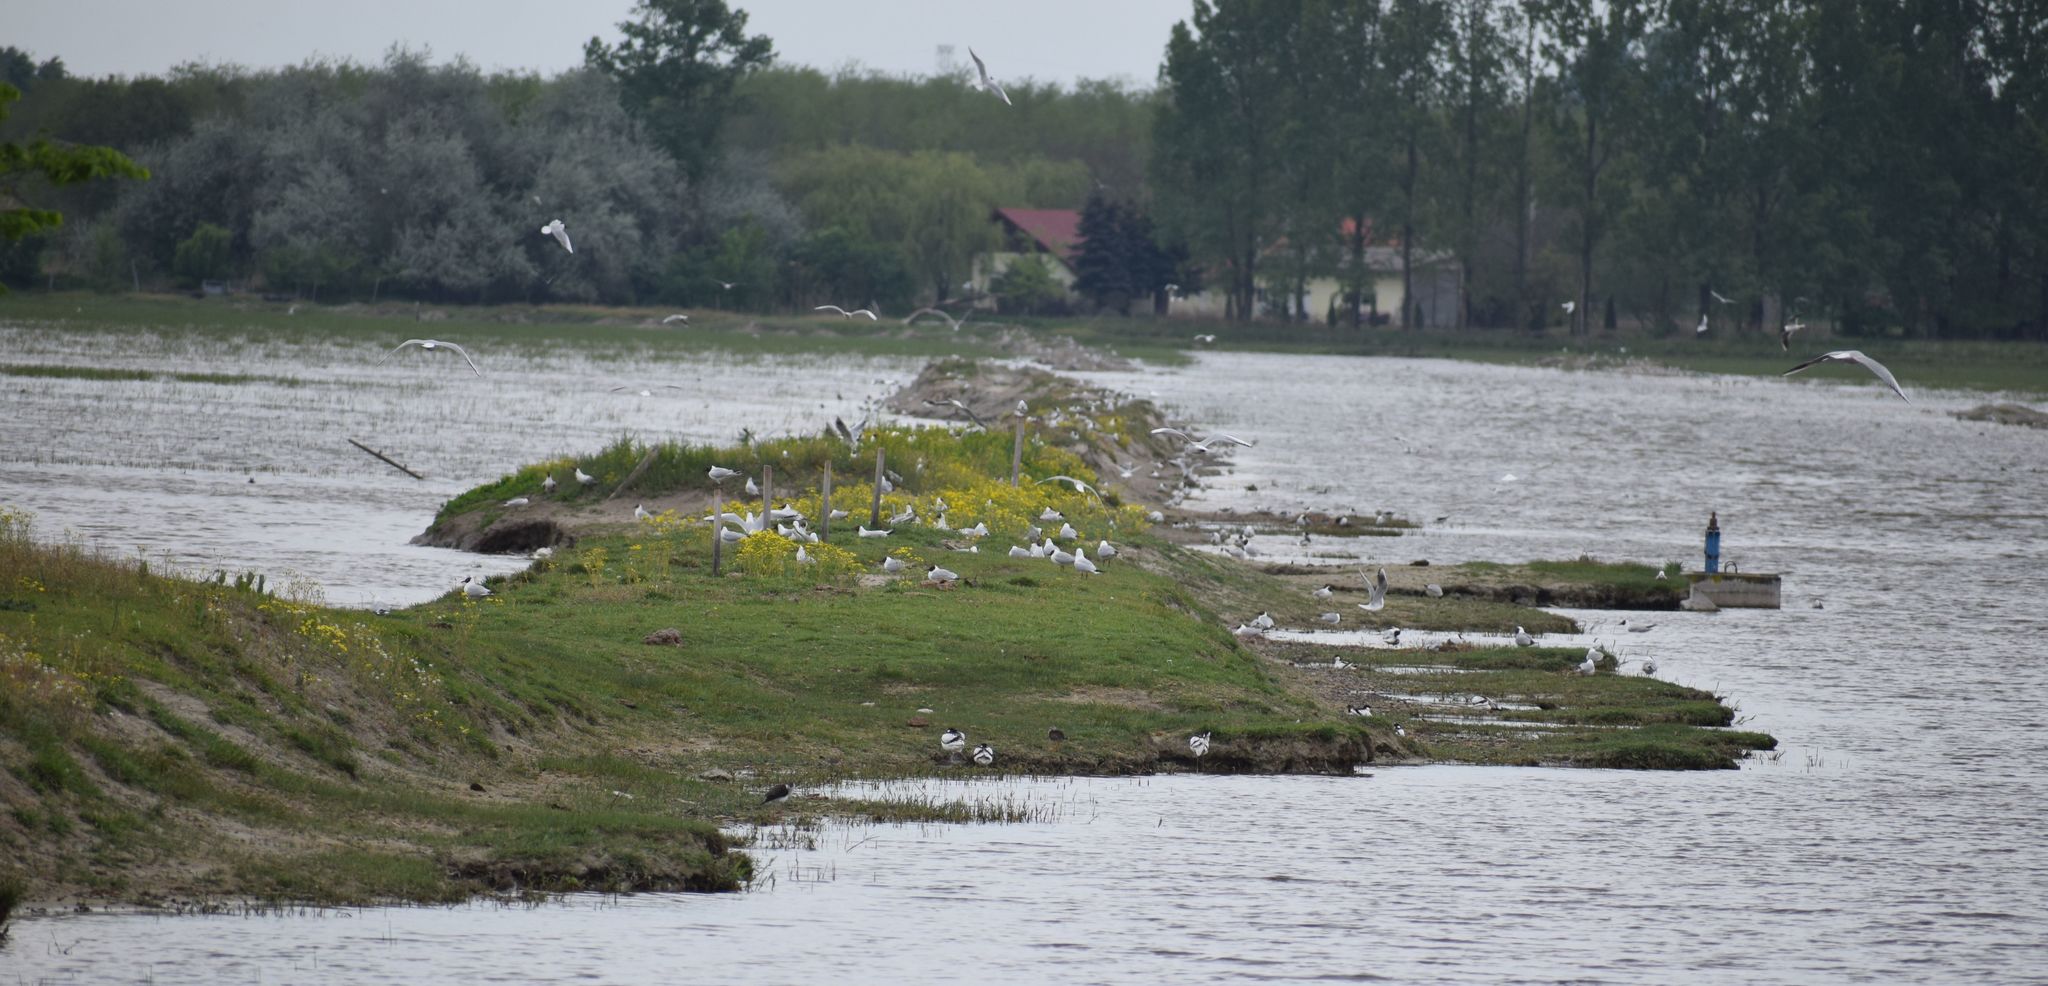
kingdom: Animalia
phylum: Chordata
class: Aves
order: Charadriiformes
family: Laridae
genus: Chroicocephalus
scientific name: Chroicocephalus ridibundus
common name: Black-headed gull
